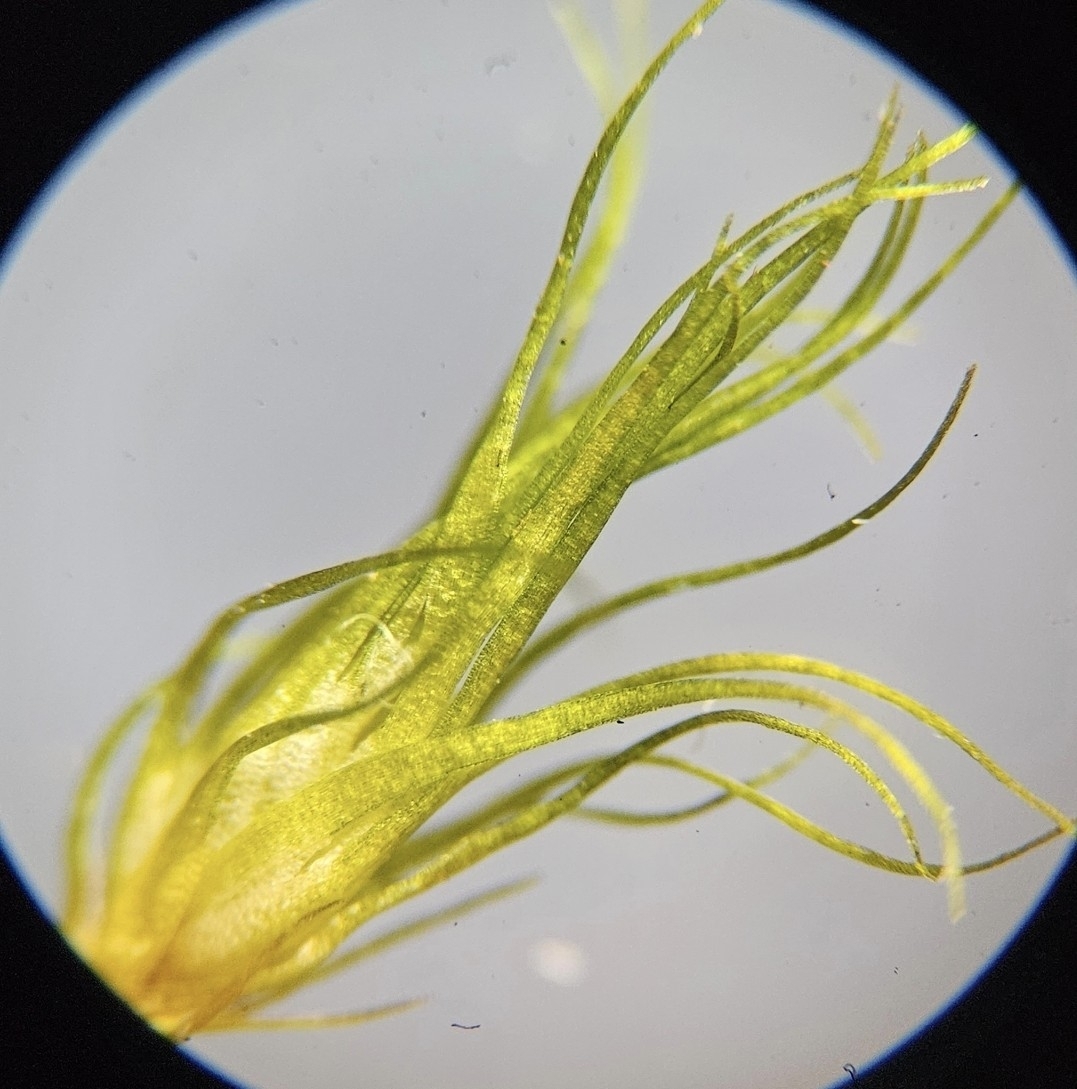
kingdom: Plantae
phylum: Bryophyta
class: Bryopsida
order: Dicranales
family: Leucobryaceae
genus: Campylopus
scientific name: Campylopus fragilis
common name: Brittle swan-neck moss
